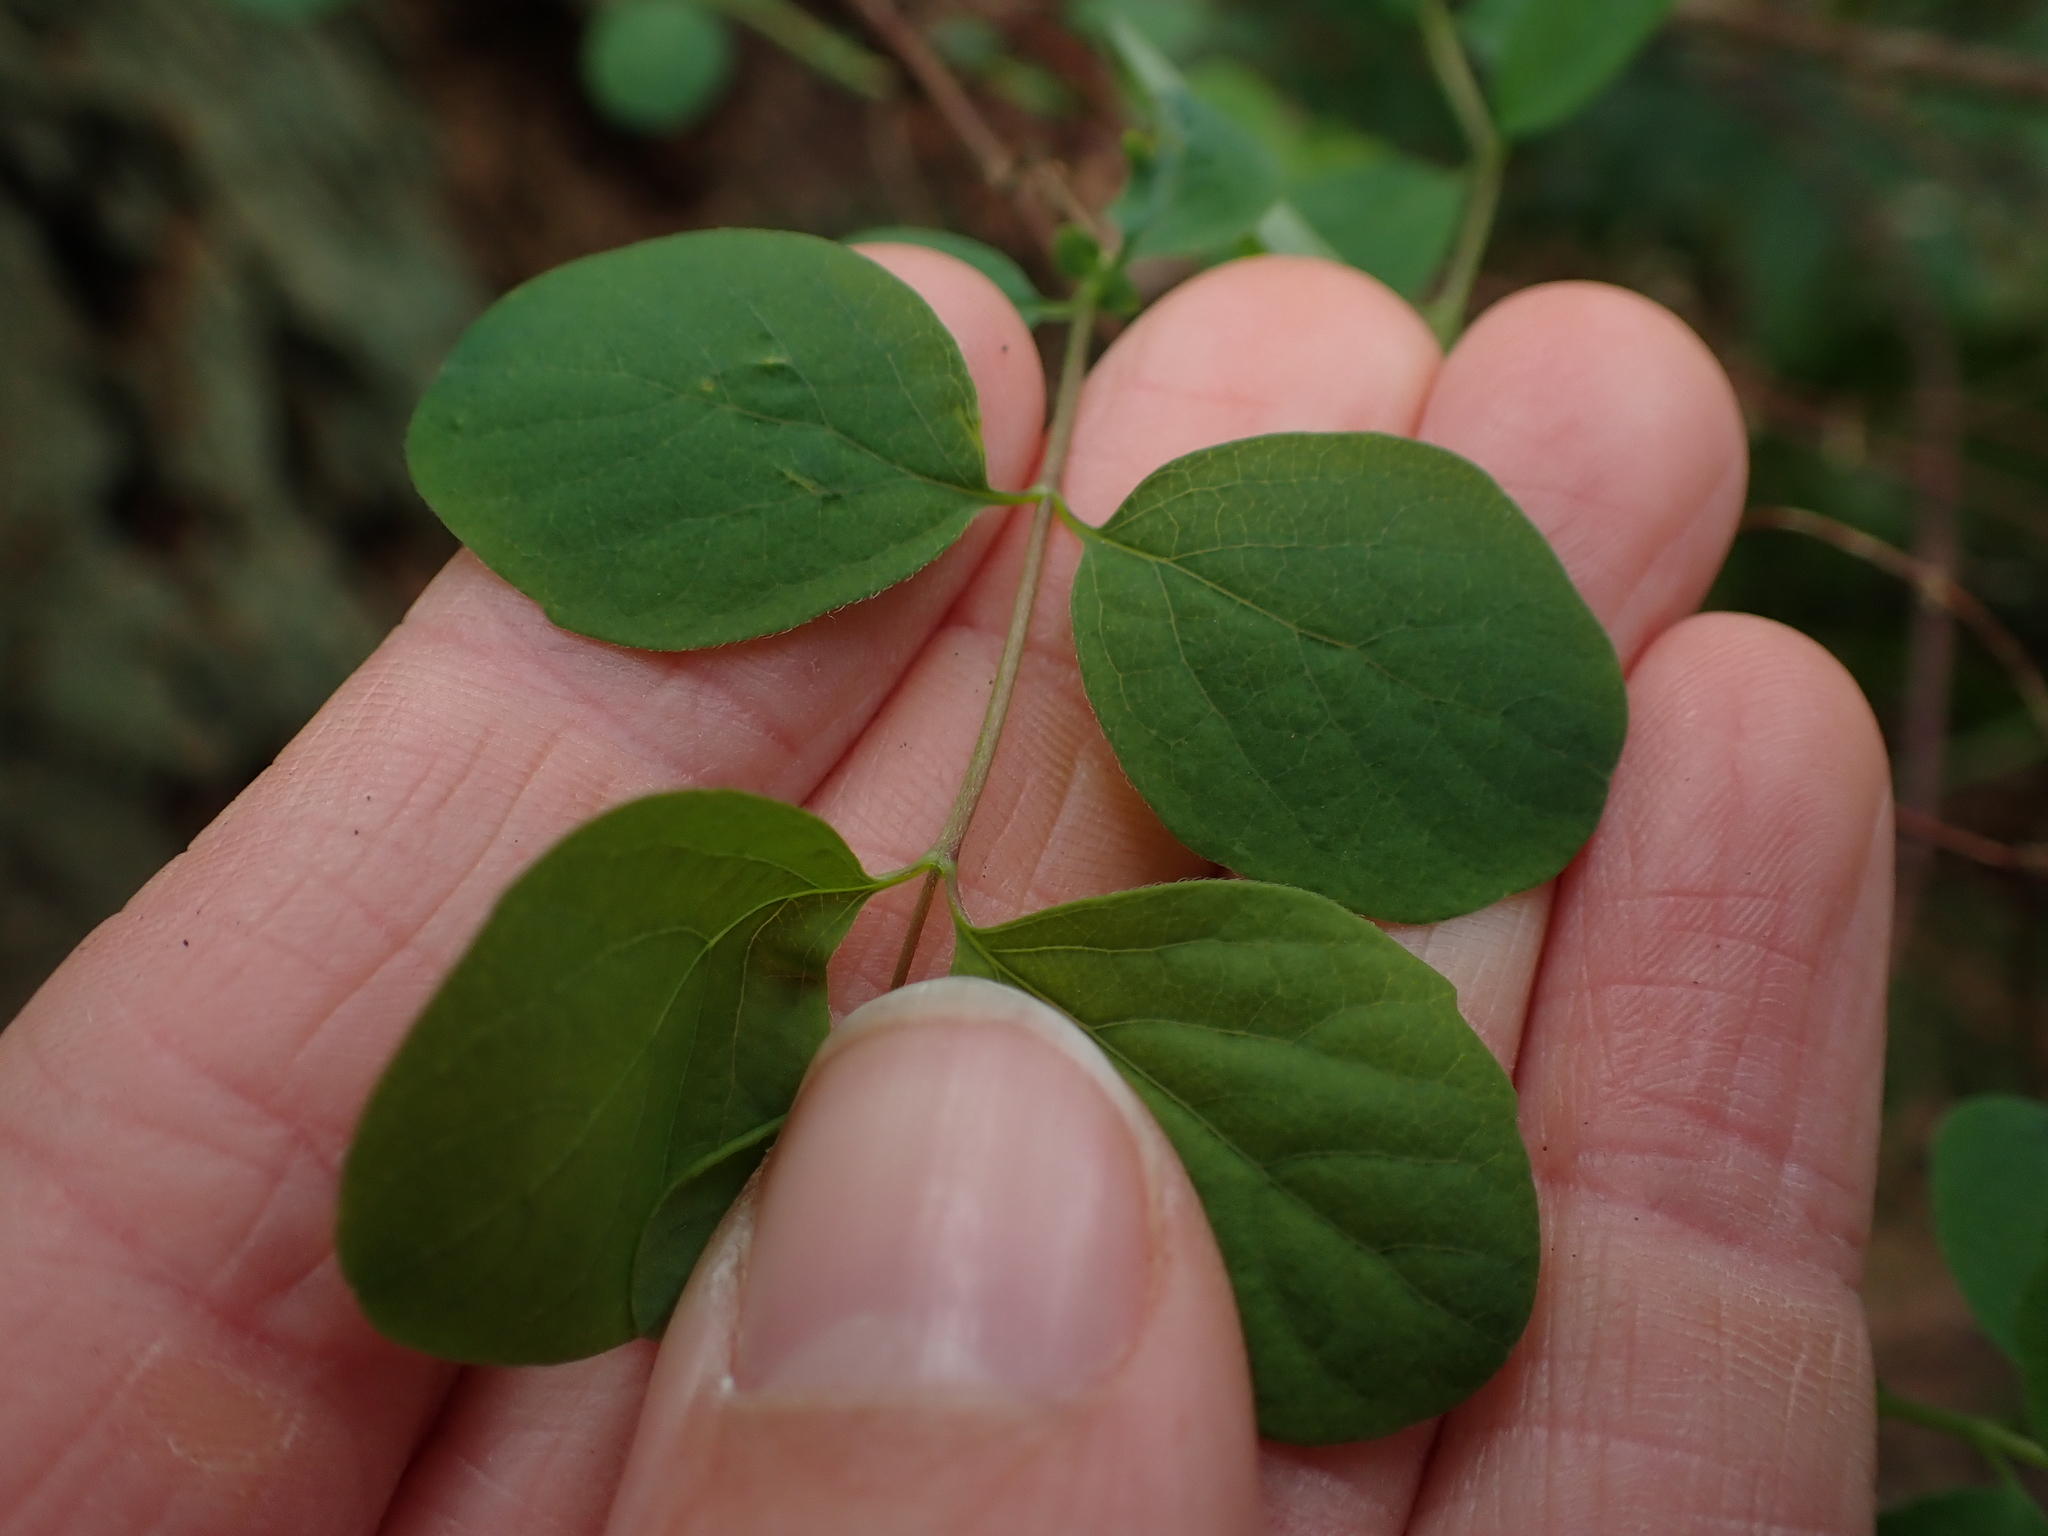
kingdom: Plantae
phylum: Tracheophyta
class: Magnoliopsida
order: Dipsacales
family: Caprifoliaceae
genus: Symphoricarpos
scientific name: Symphoricarpos albus
